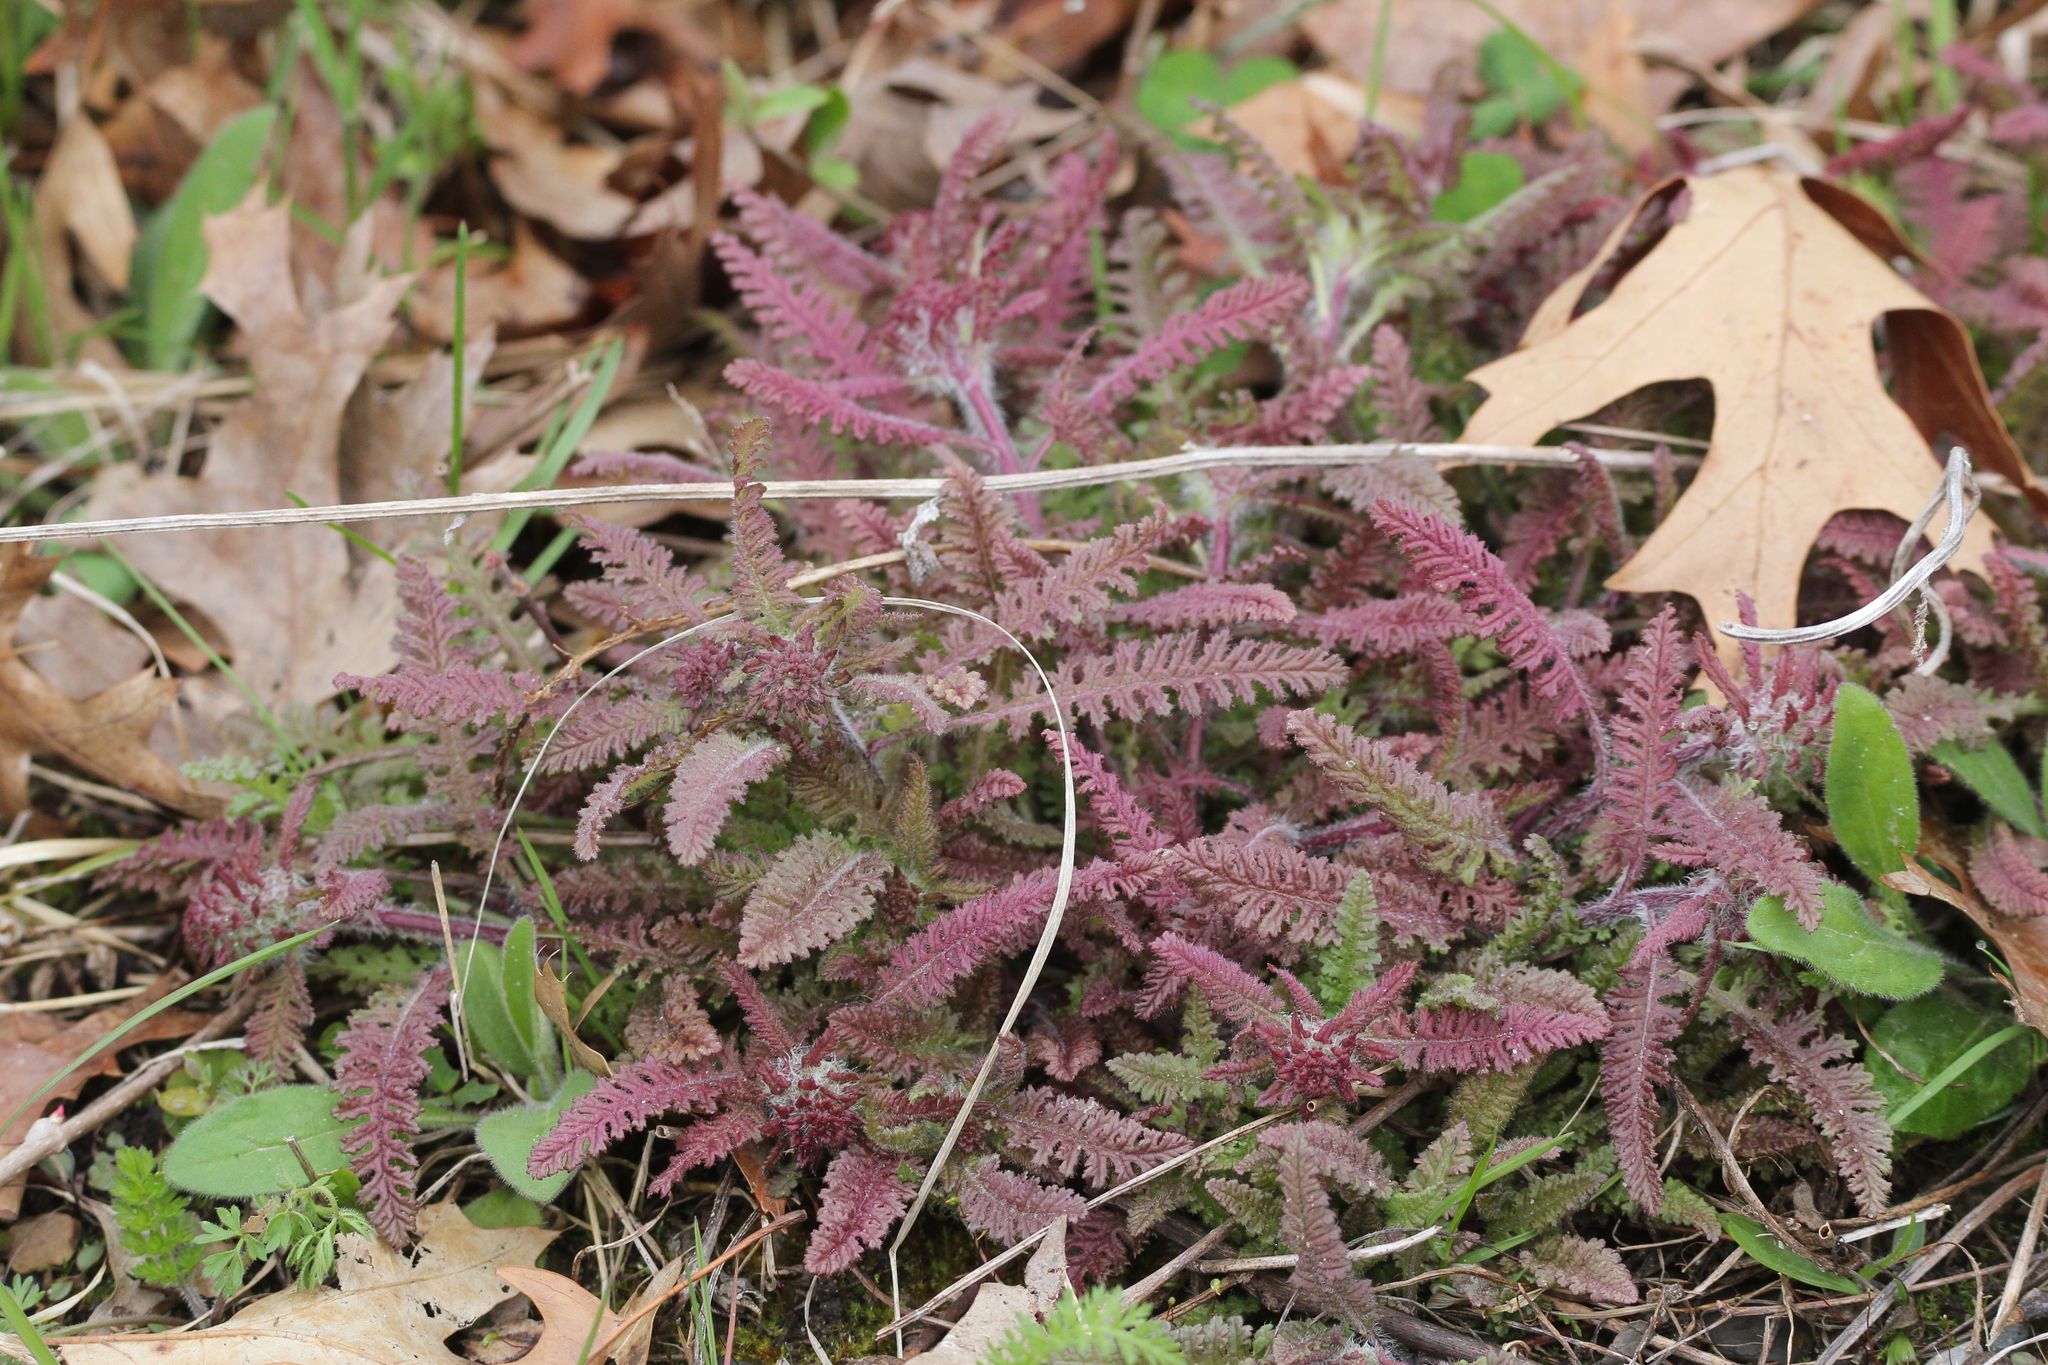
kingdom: Plantae
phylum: Tracheophyta
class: Magnoliopsida
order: Lamiales
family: Orobanchaceae
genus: Pedicularis
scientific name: Pedicularis canadensis
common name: Early lousewort
